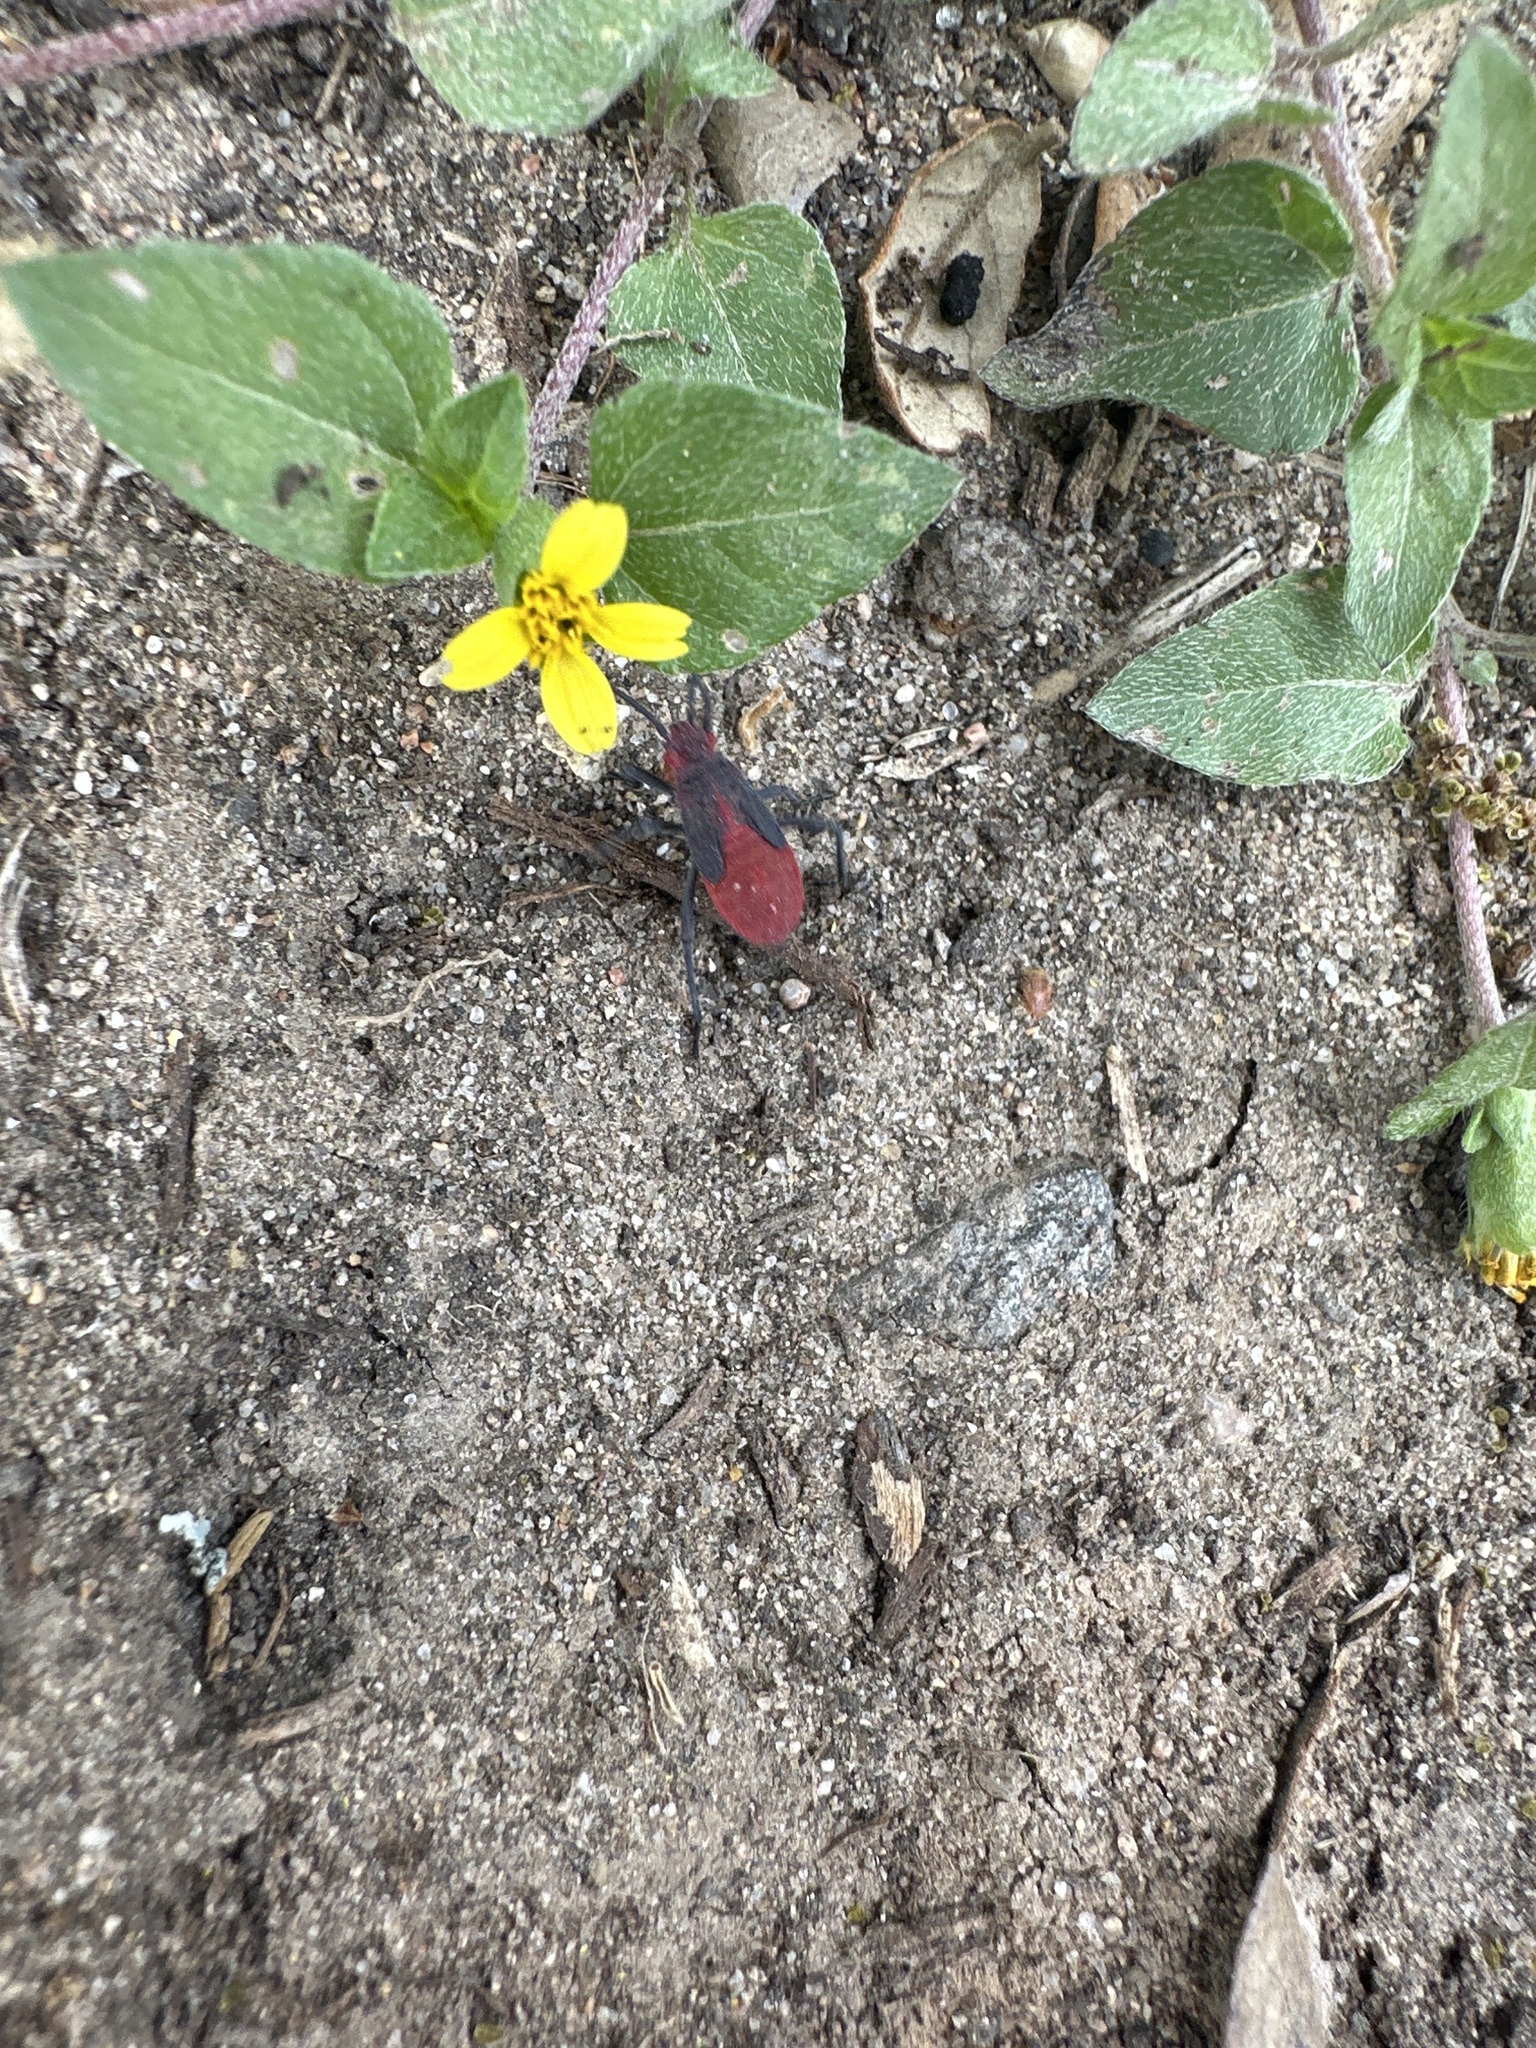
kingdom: Animalia
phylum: Arthropoda
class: Insecta
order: Hemiptera
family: Rhopalidae
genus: Jadera
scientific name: Jadera haematoloma
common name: Red-shouldered bug
